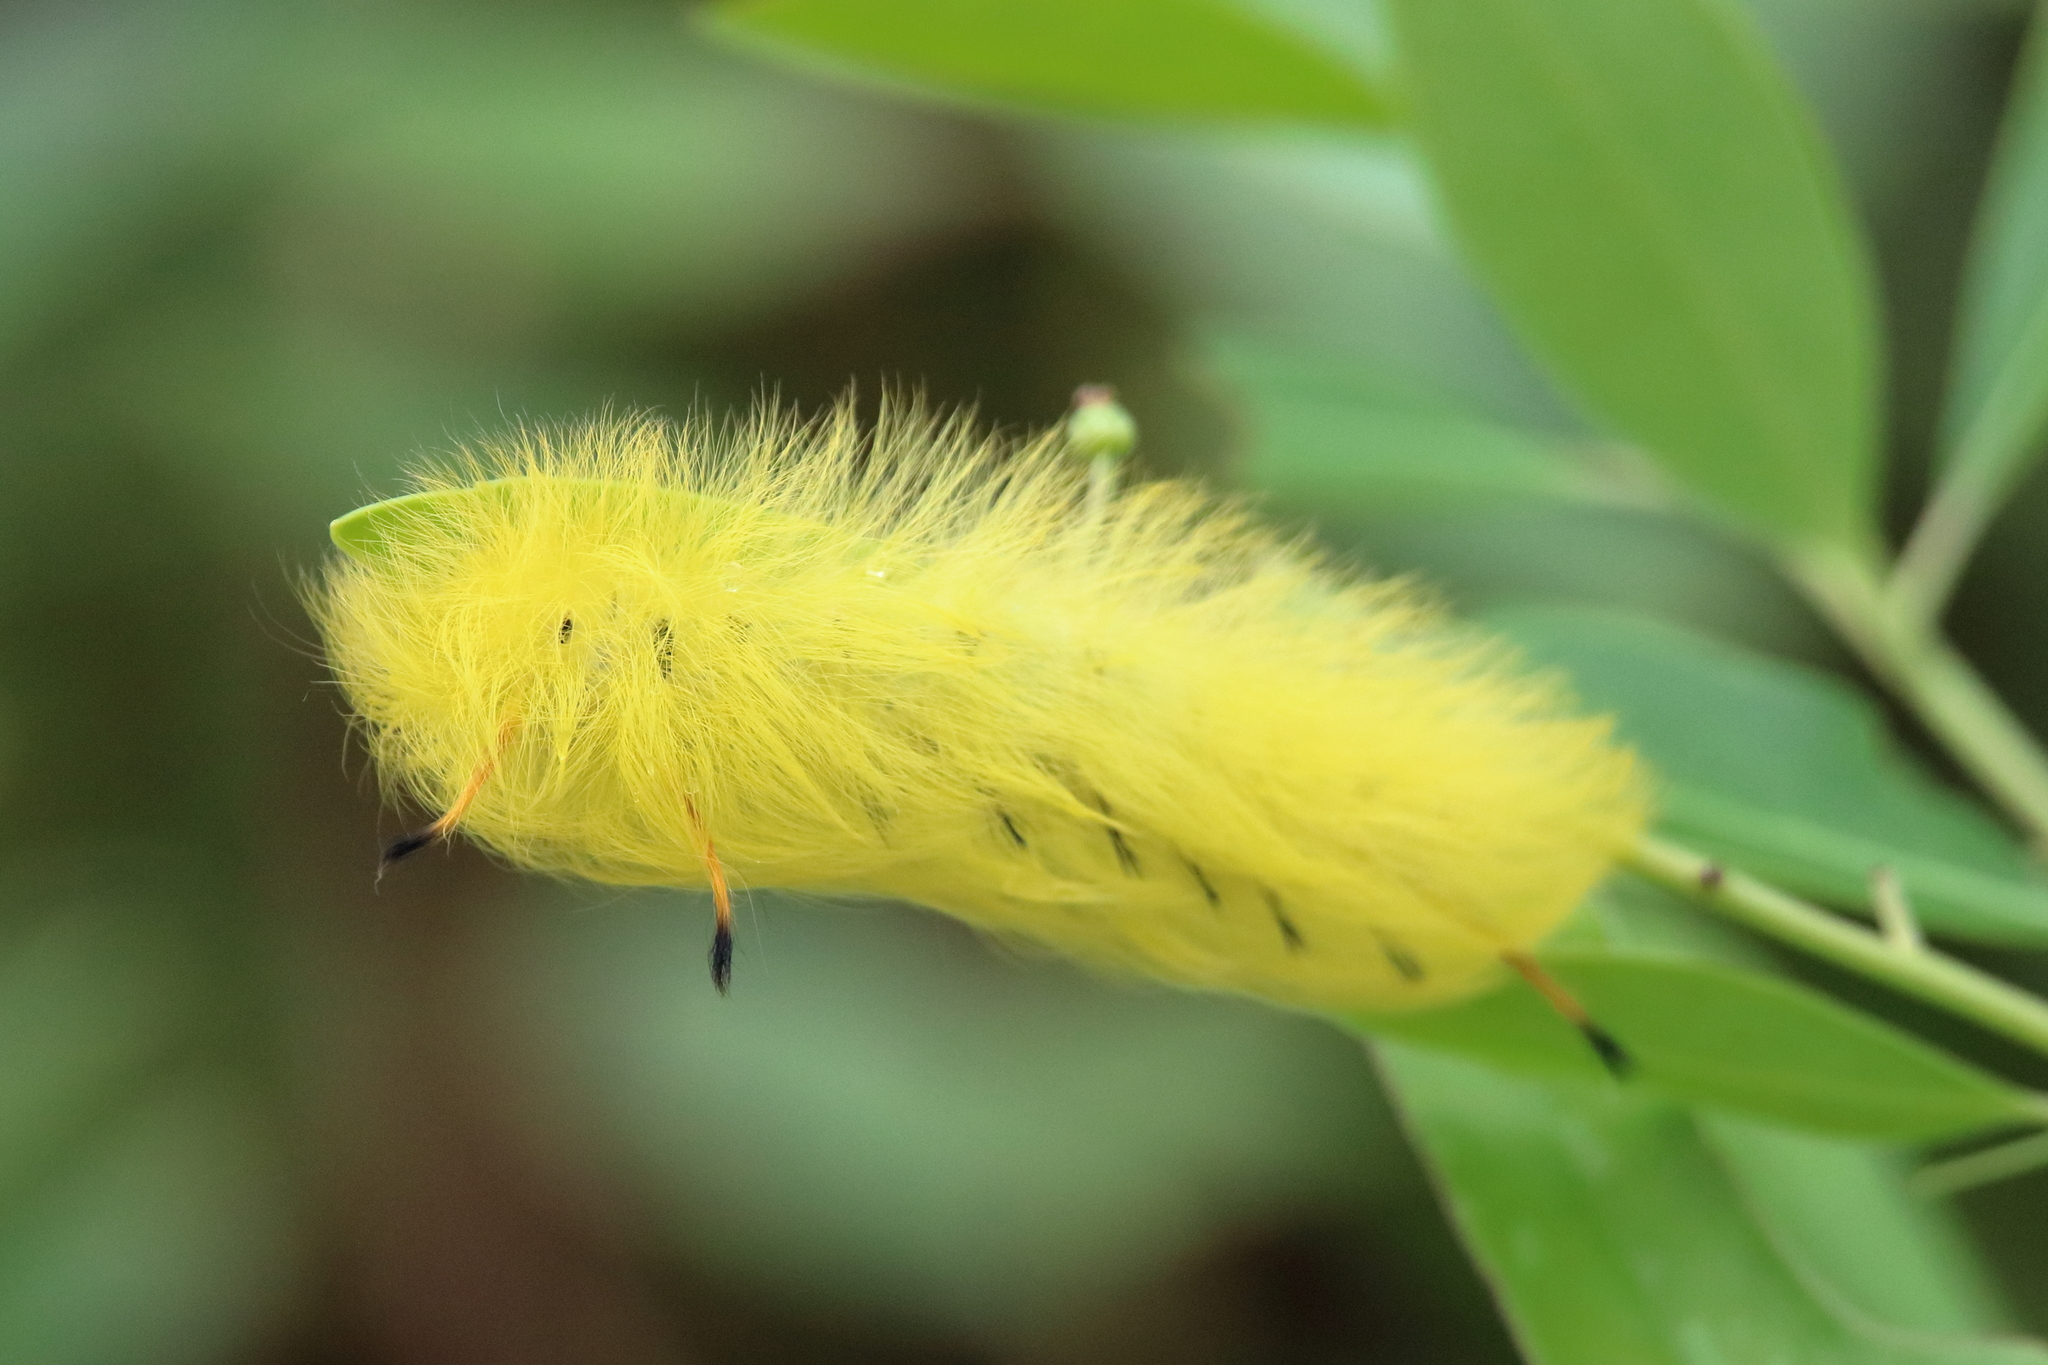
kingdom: Animalia
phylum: Arthropoda
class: Insecta
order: Lepidoptera
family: Apatelodidae
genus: Hygrochroa
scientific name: Hygrochroa Apatelodes torrefacta
